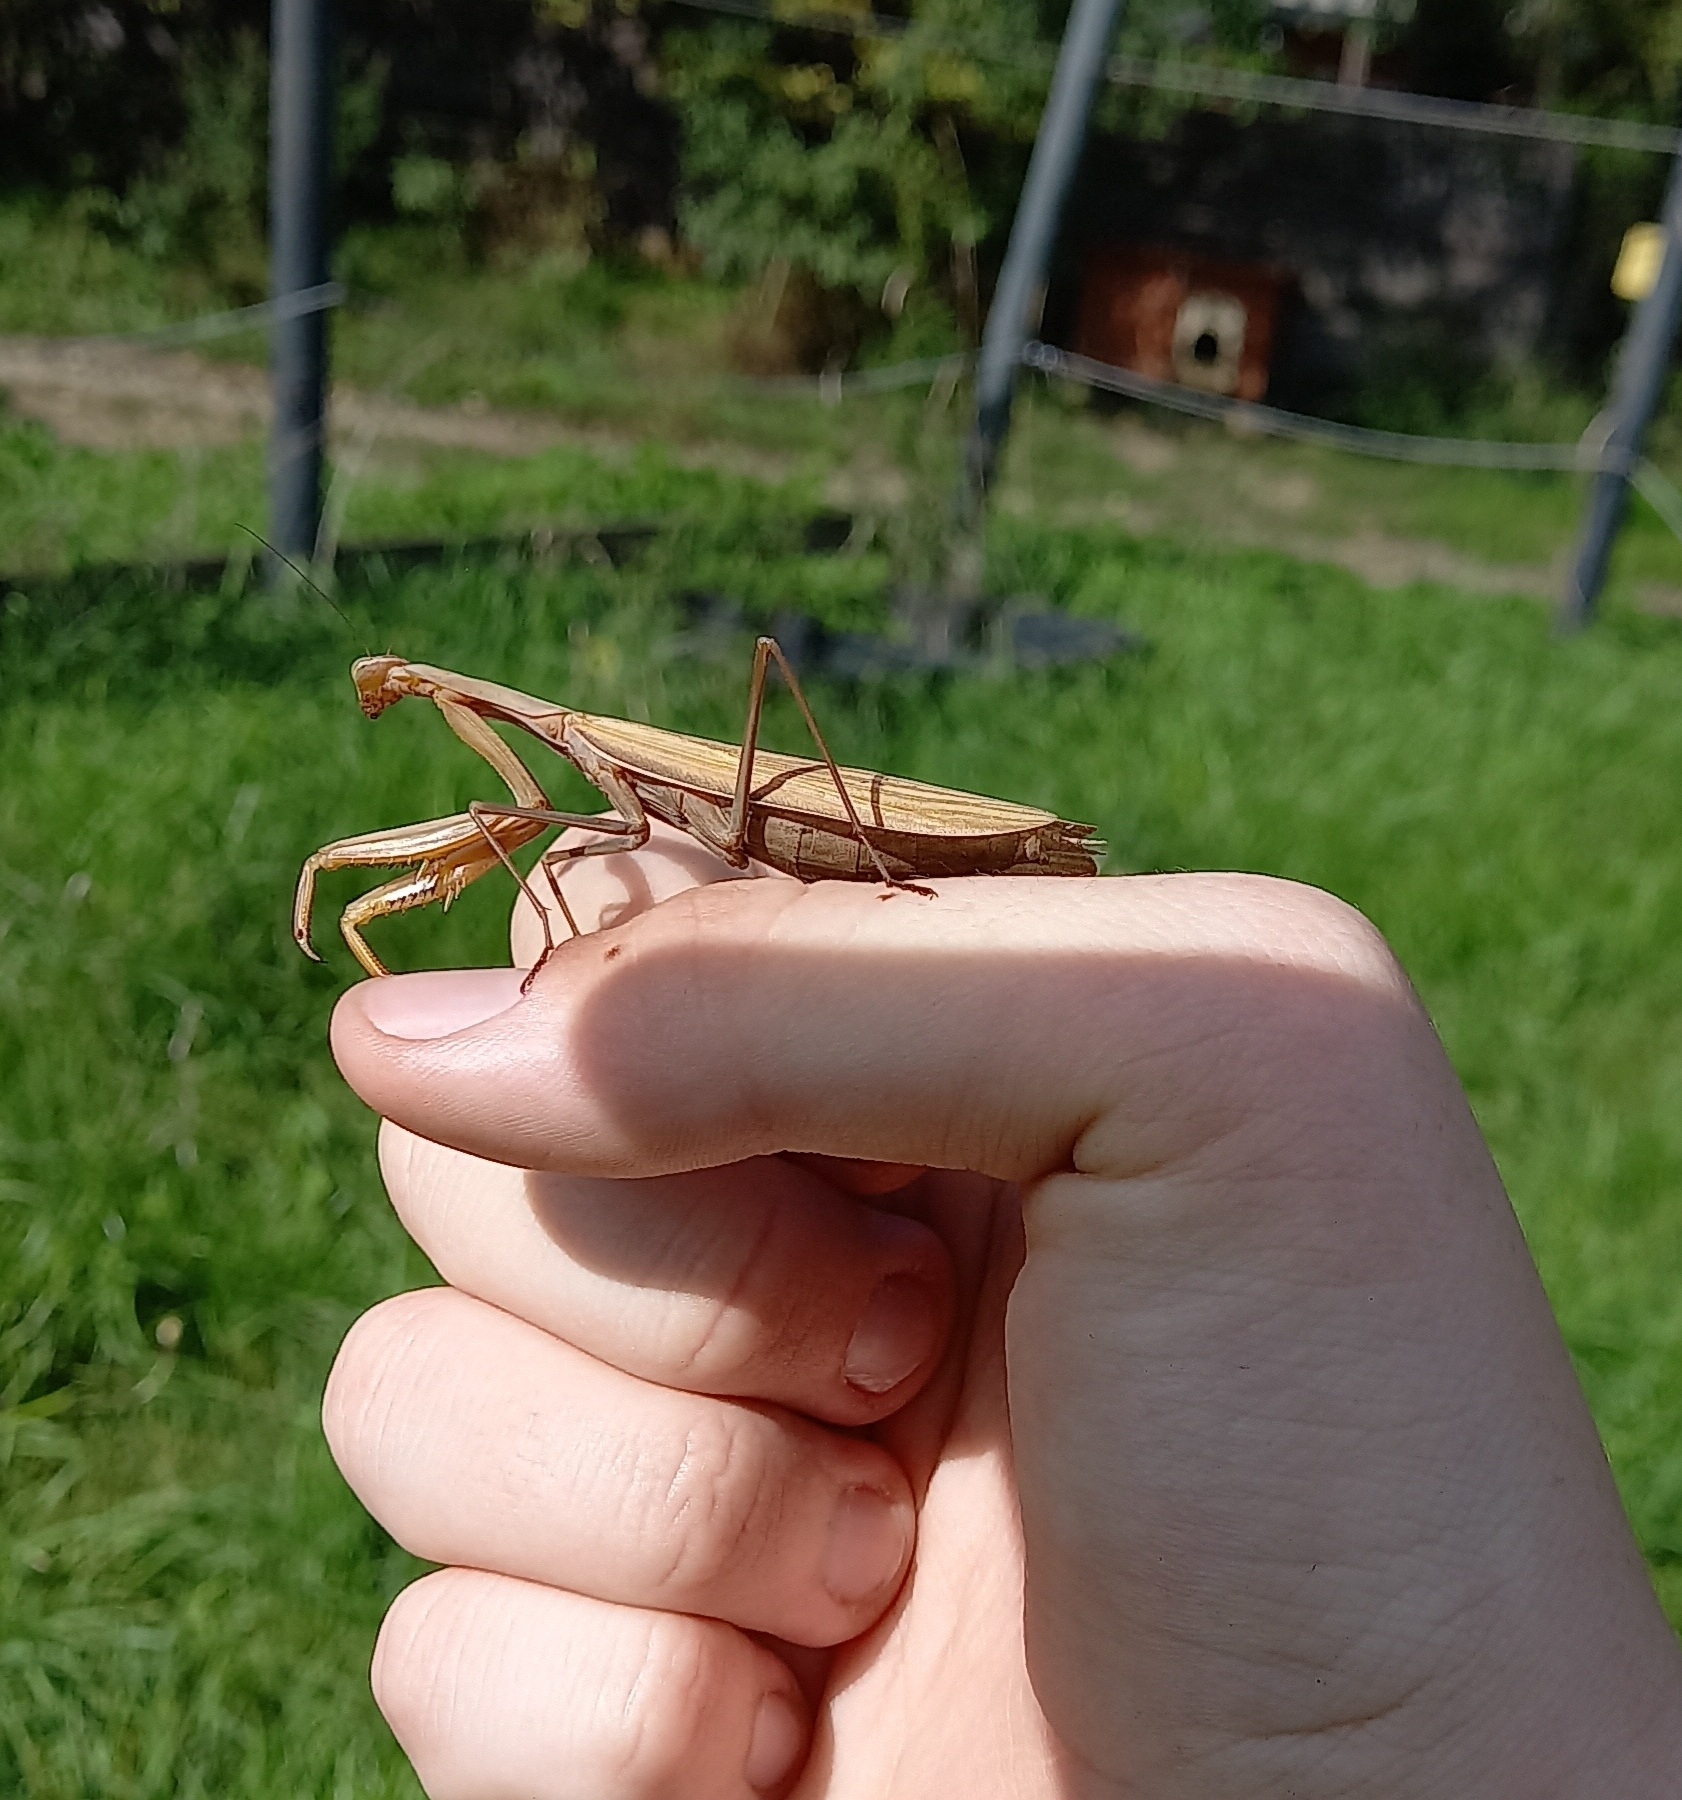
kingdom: Animalia
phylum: Arthropoda
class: Insecta
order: Mantodea
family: Mantidae
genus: Mantis
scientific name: Mantis religiosa
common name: Praying mantis
